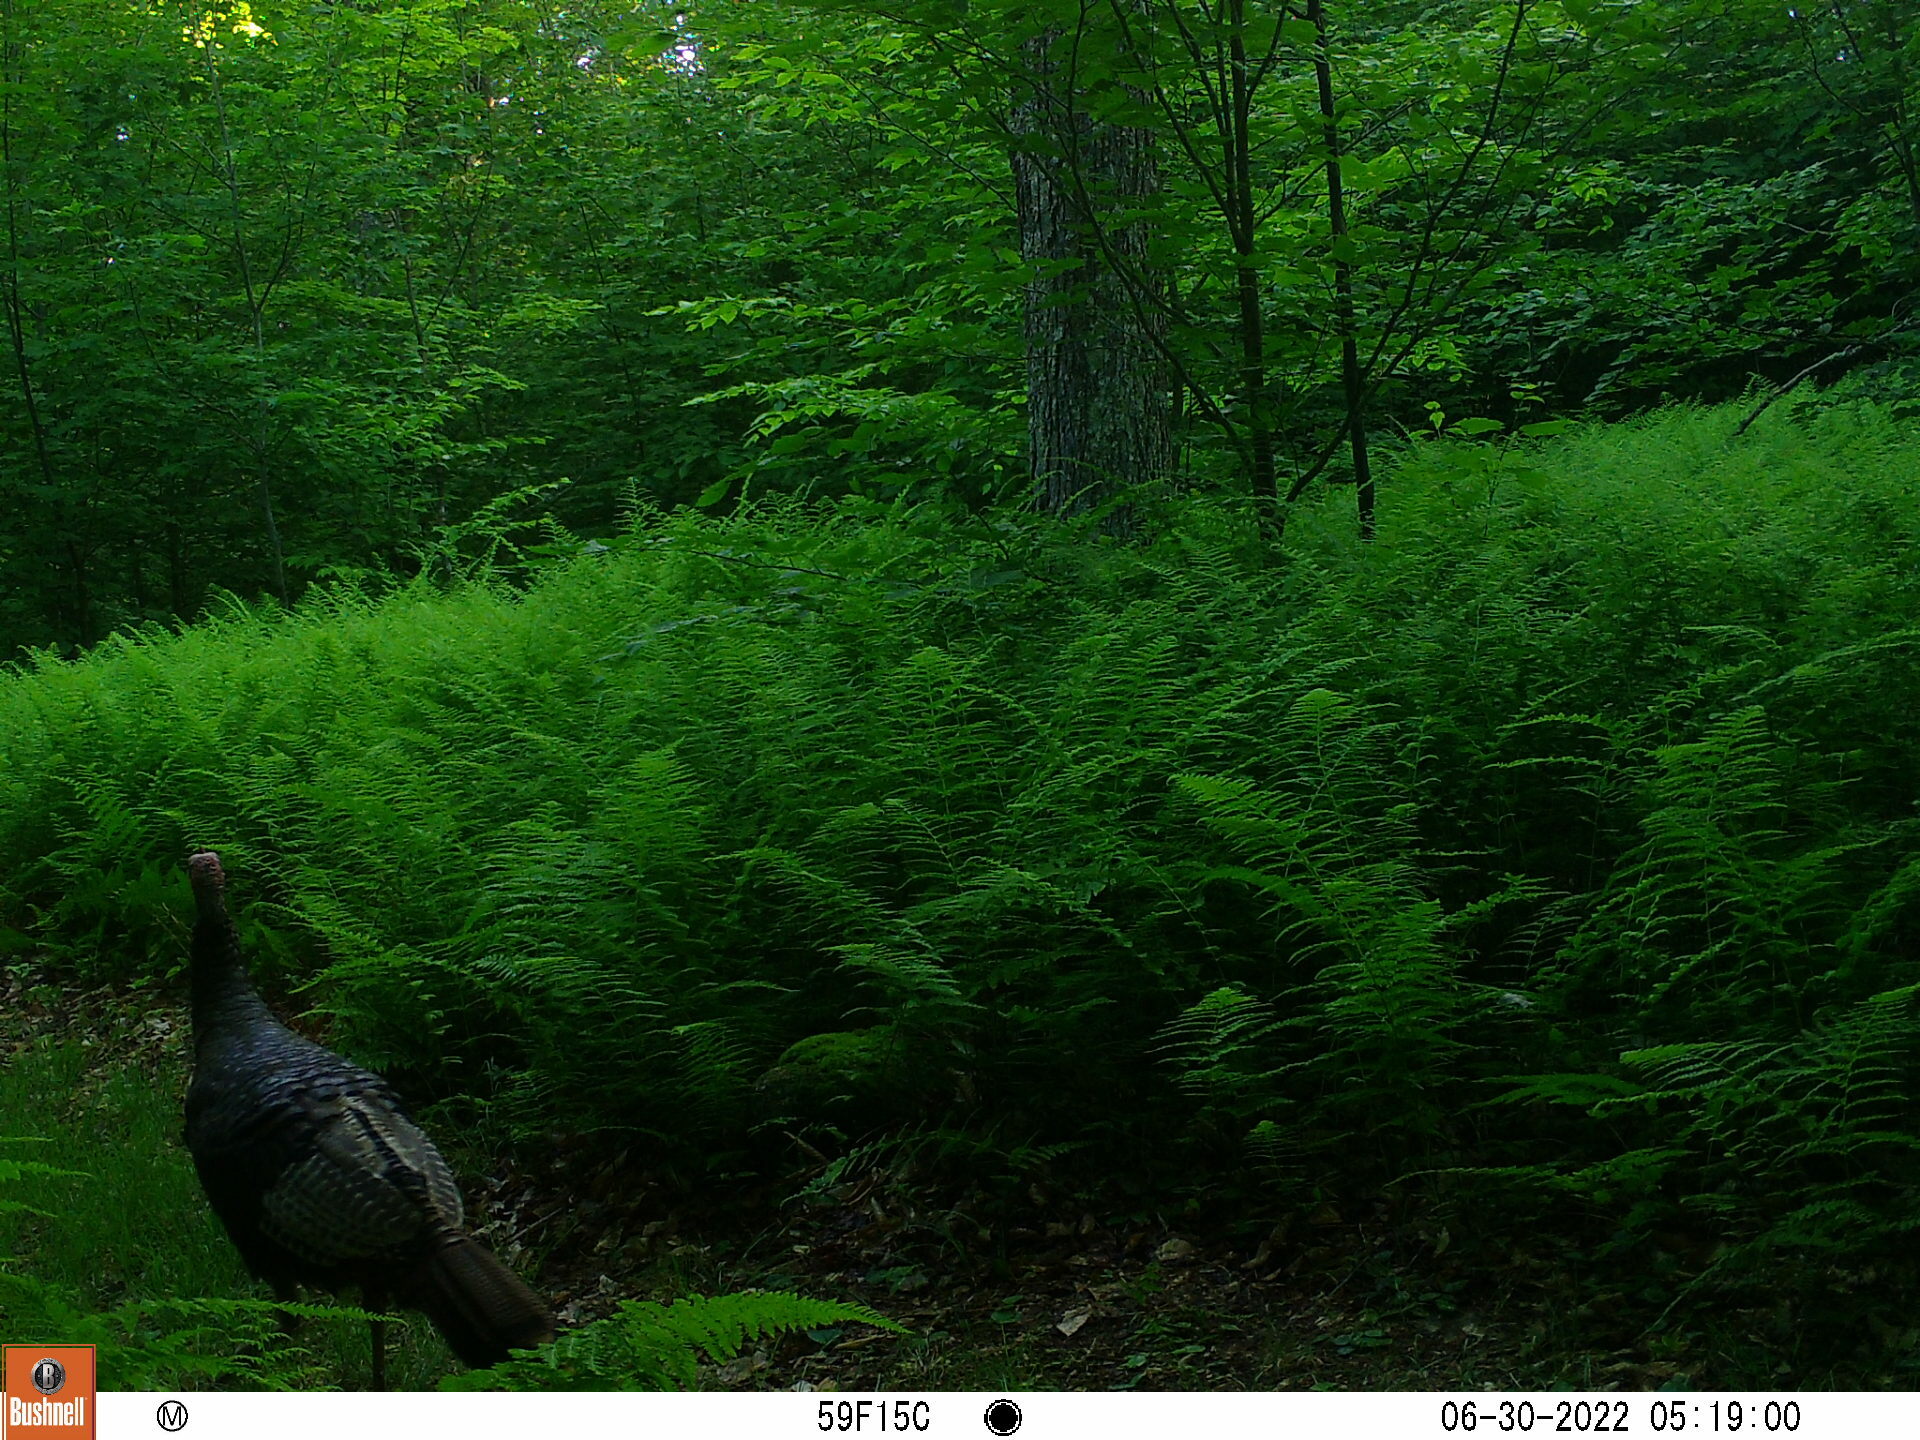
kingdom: Animalia
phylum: Chordata
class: Aves
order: Galliformes
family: Phasianidae
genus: Meleagris
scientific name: Meleagris gallopavo
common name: Wild turkey
